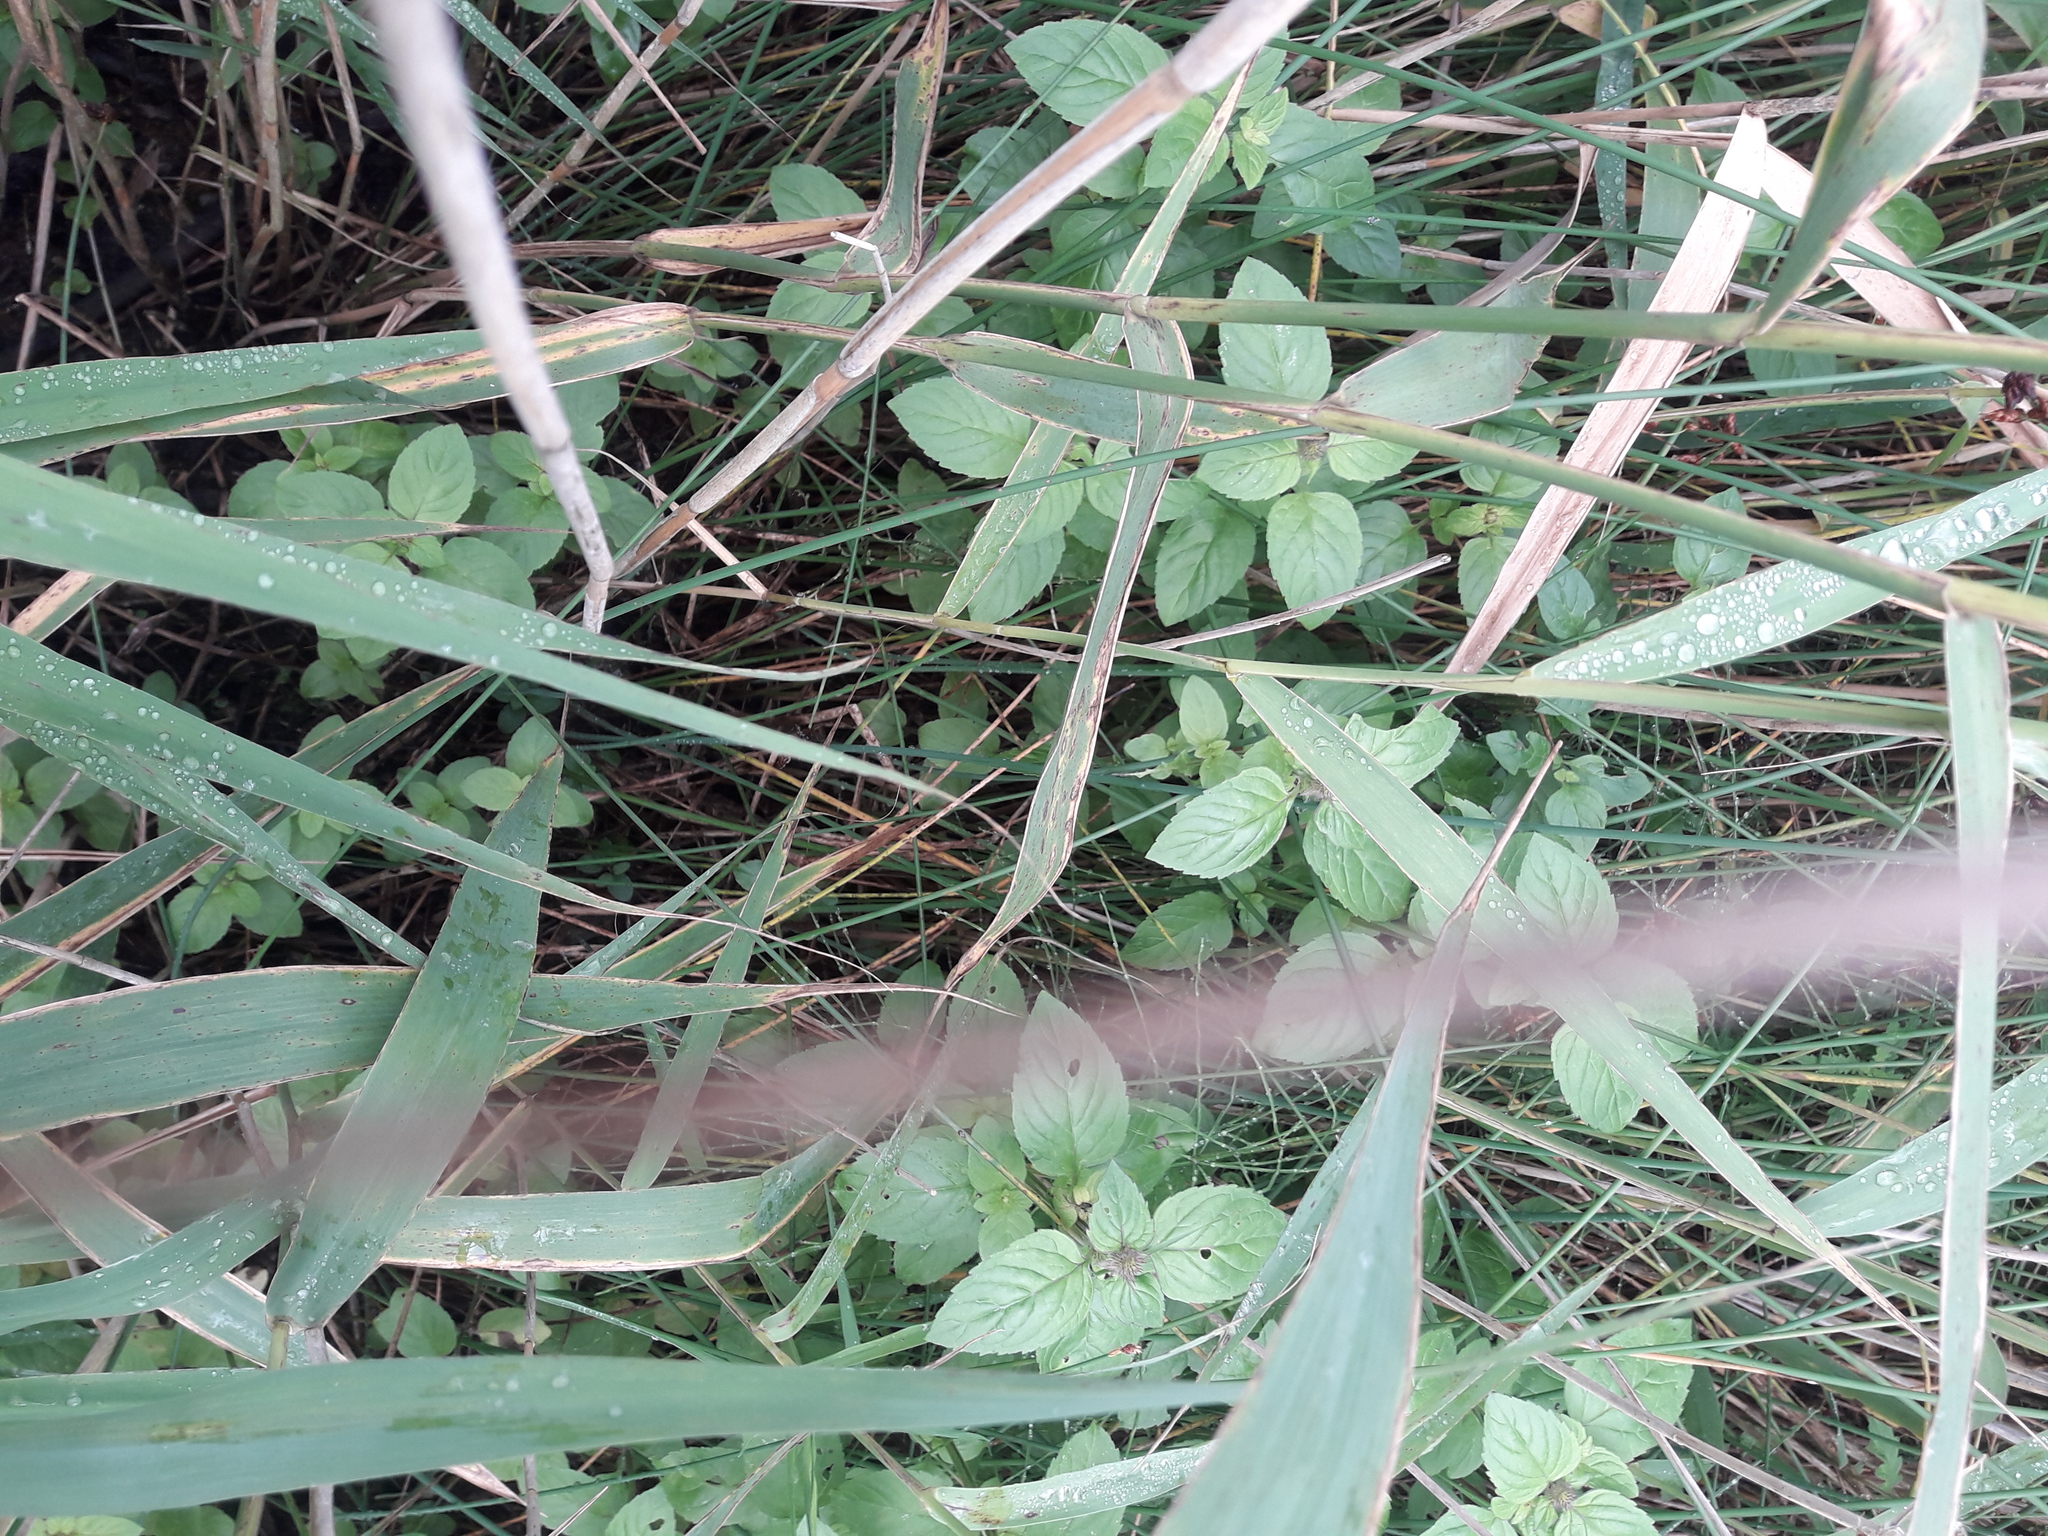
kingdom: Plantae
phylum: Tracheophyta
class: Liliopsida
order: Poales
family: Juncaceae
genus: Juncus
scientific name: Juncus effusus
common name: Soft rush
